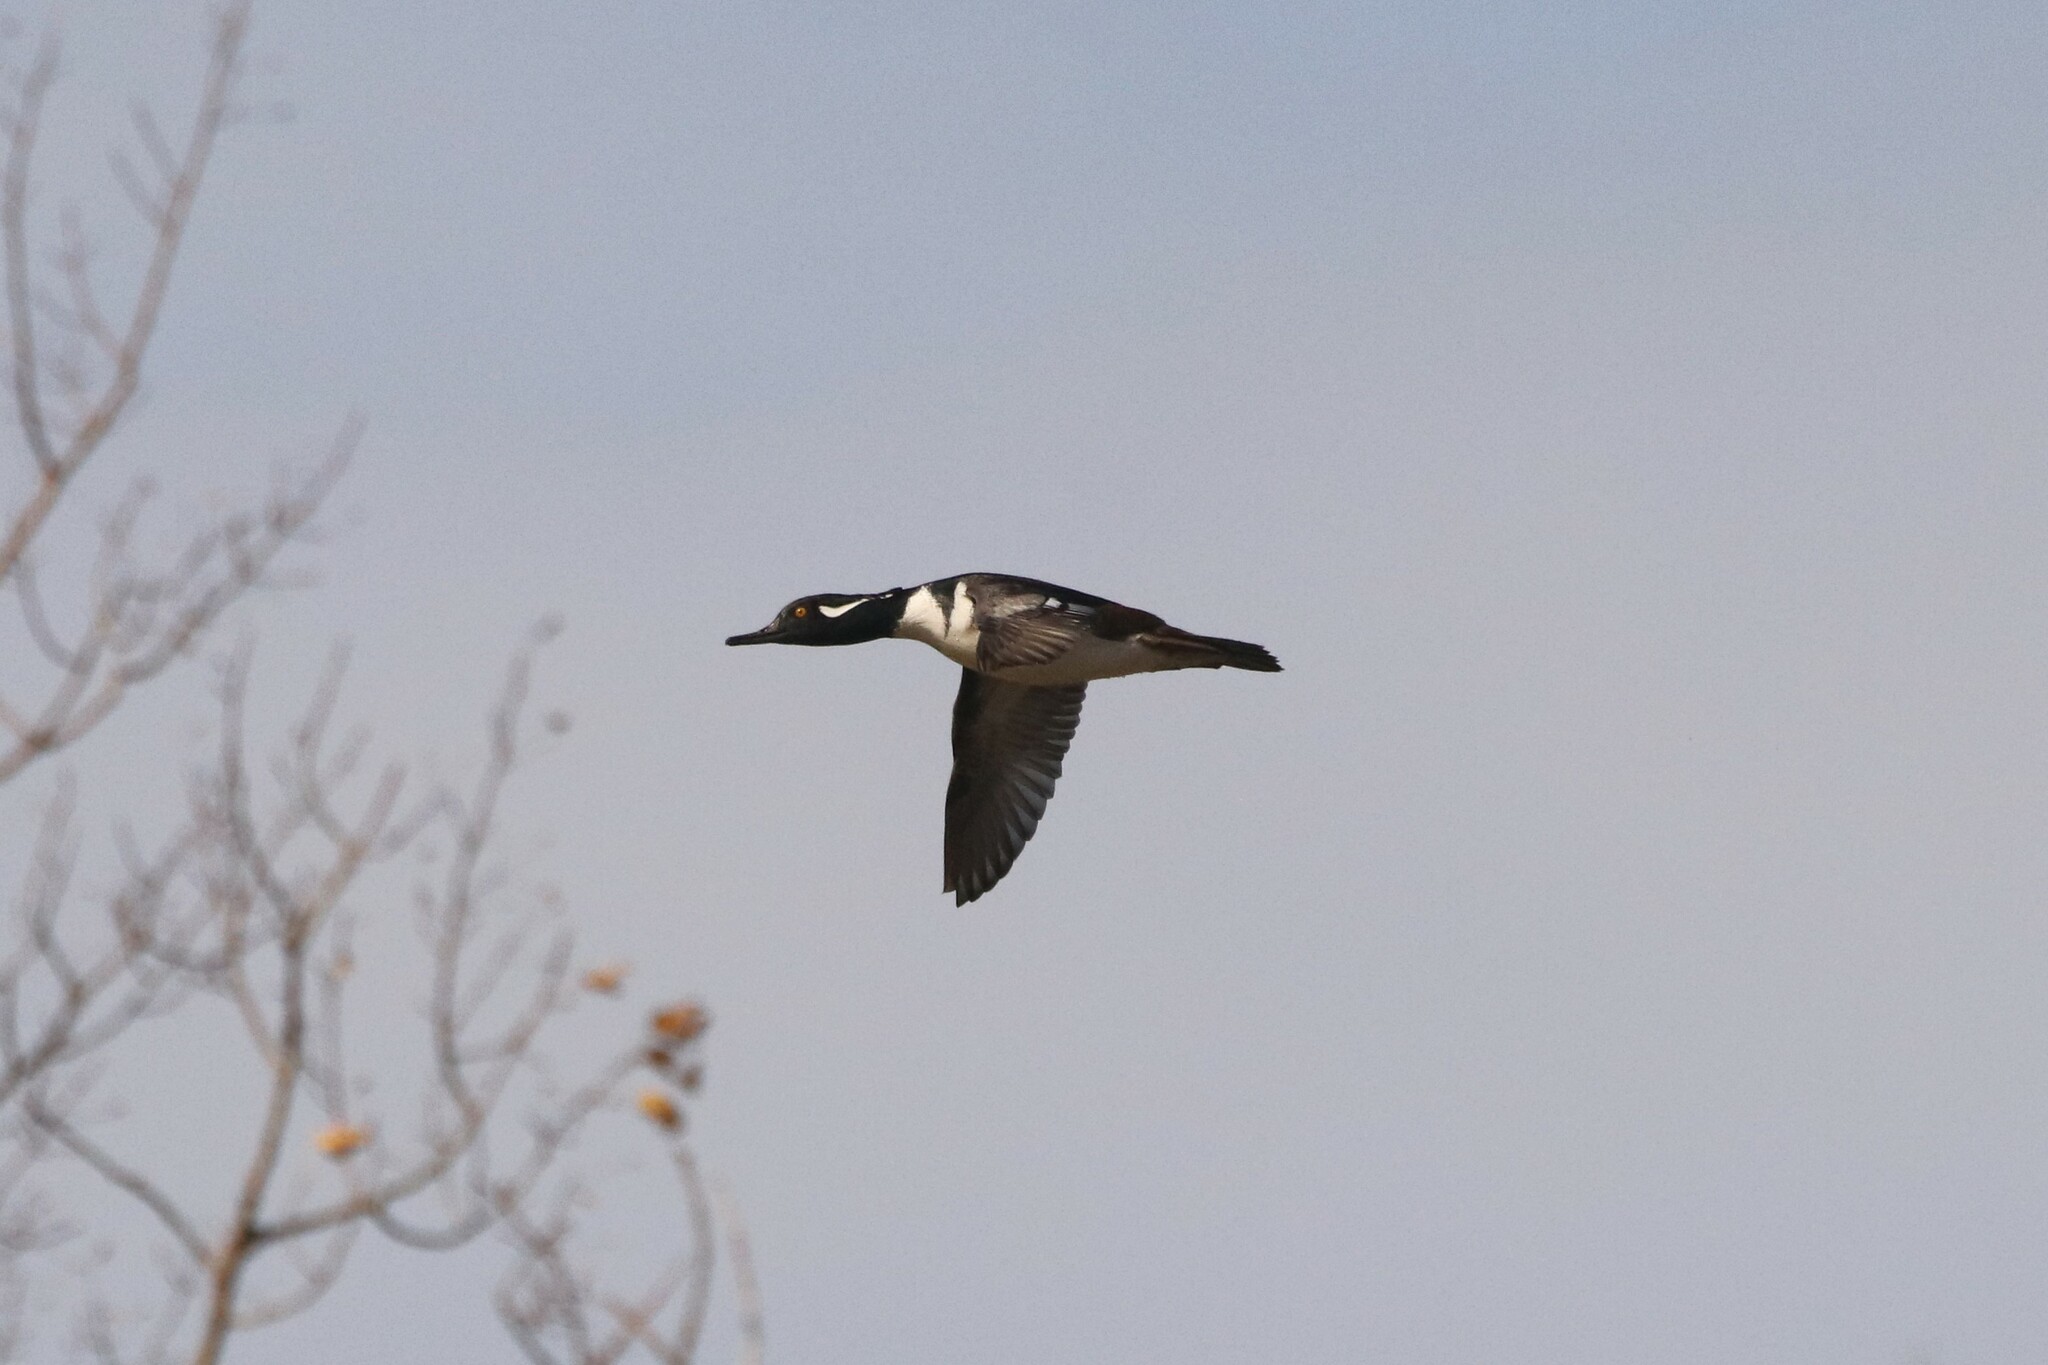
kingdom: Animalia
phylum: Chordata
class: Aves
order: Anseriformes
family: Anatidae
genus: Lophodytes
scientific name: Lophodytes cucullatus
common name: Hooded merganser
